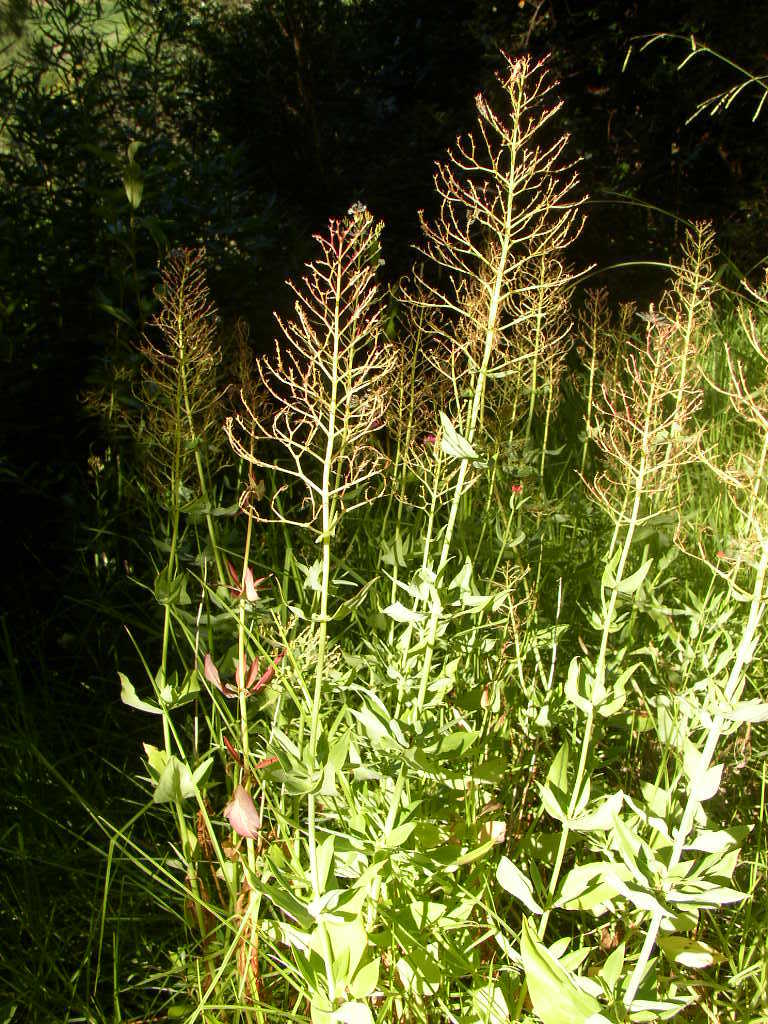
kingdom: Plantae
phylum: Tracheophyta
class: Magnoliopsida
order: Dipsacales
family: Caprifoliaceae
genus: Centranthus
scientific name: Centranthus ruber
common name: Red valerian
